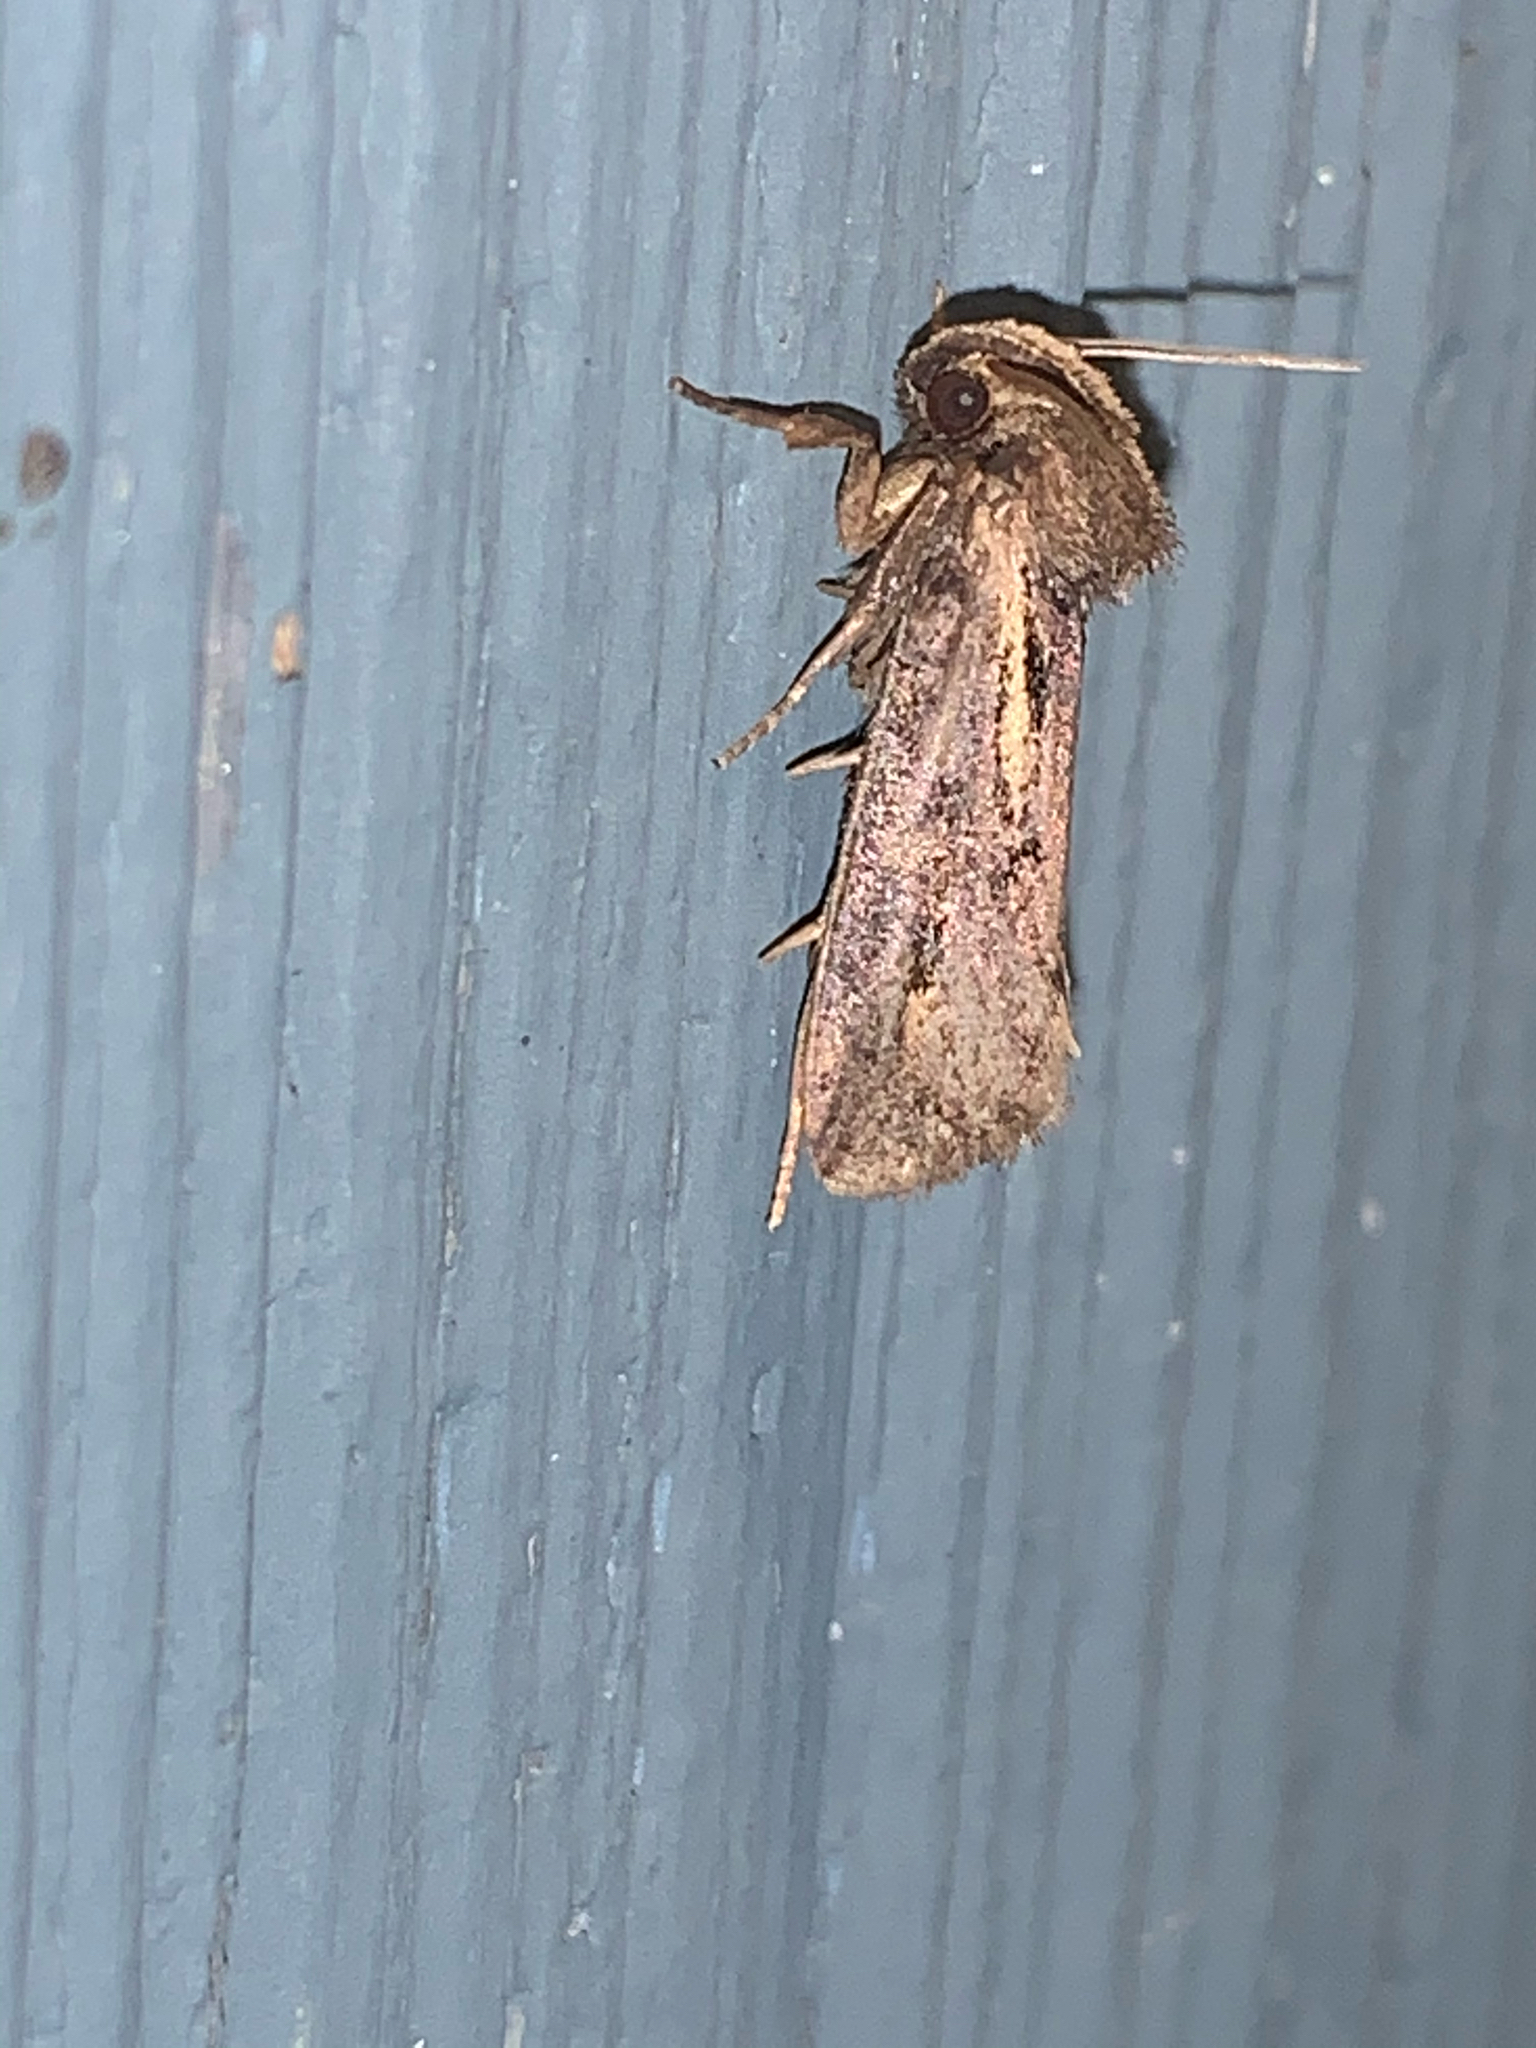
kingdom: Animalia
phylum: Arthropoda
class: Insecta
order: Lepidoptera
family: Tineidae
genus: Acrolophus
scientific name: Acrolophus popeanella
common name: Clemens' grass tubeworm moth
